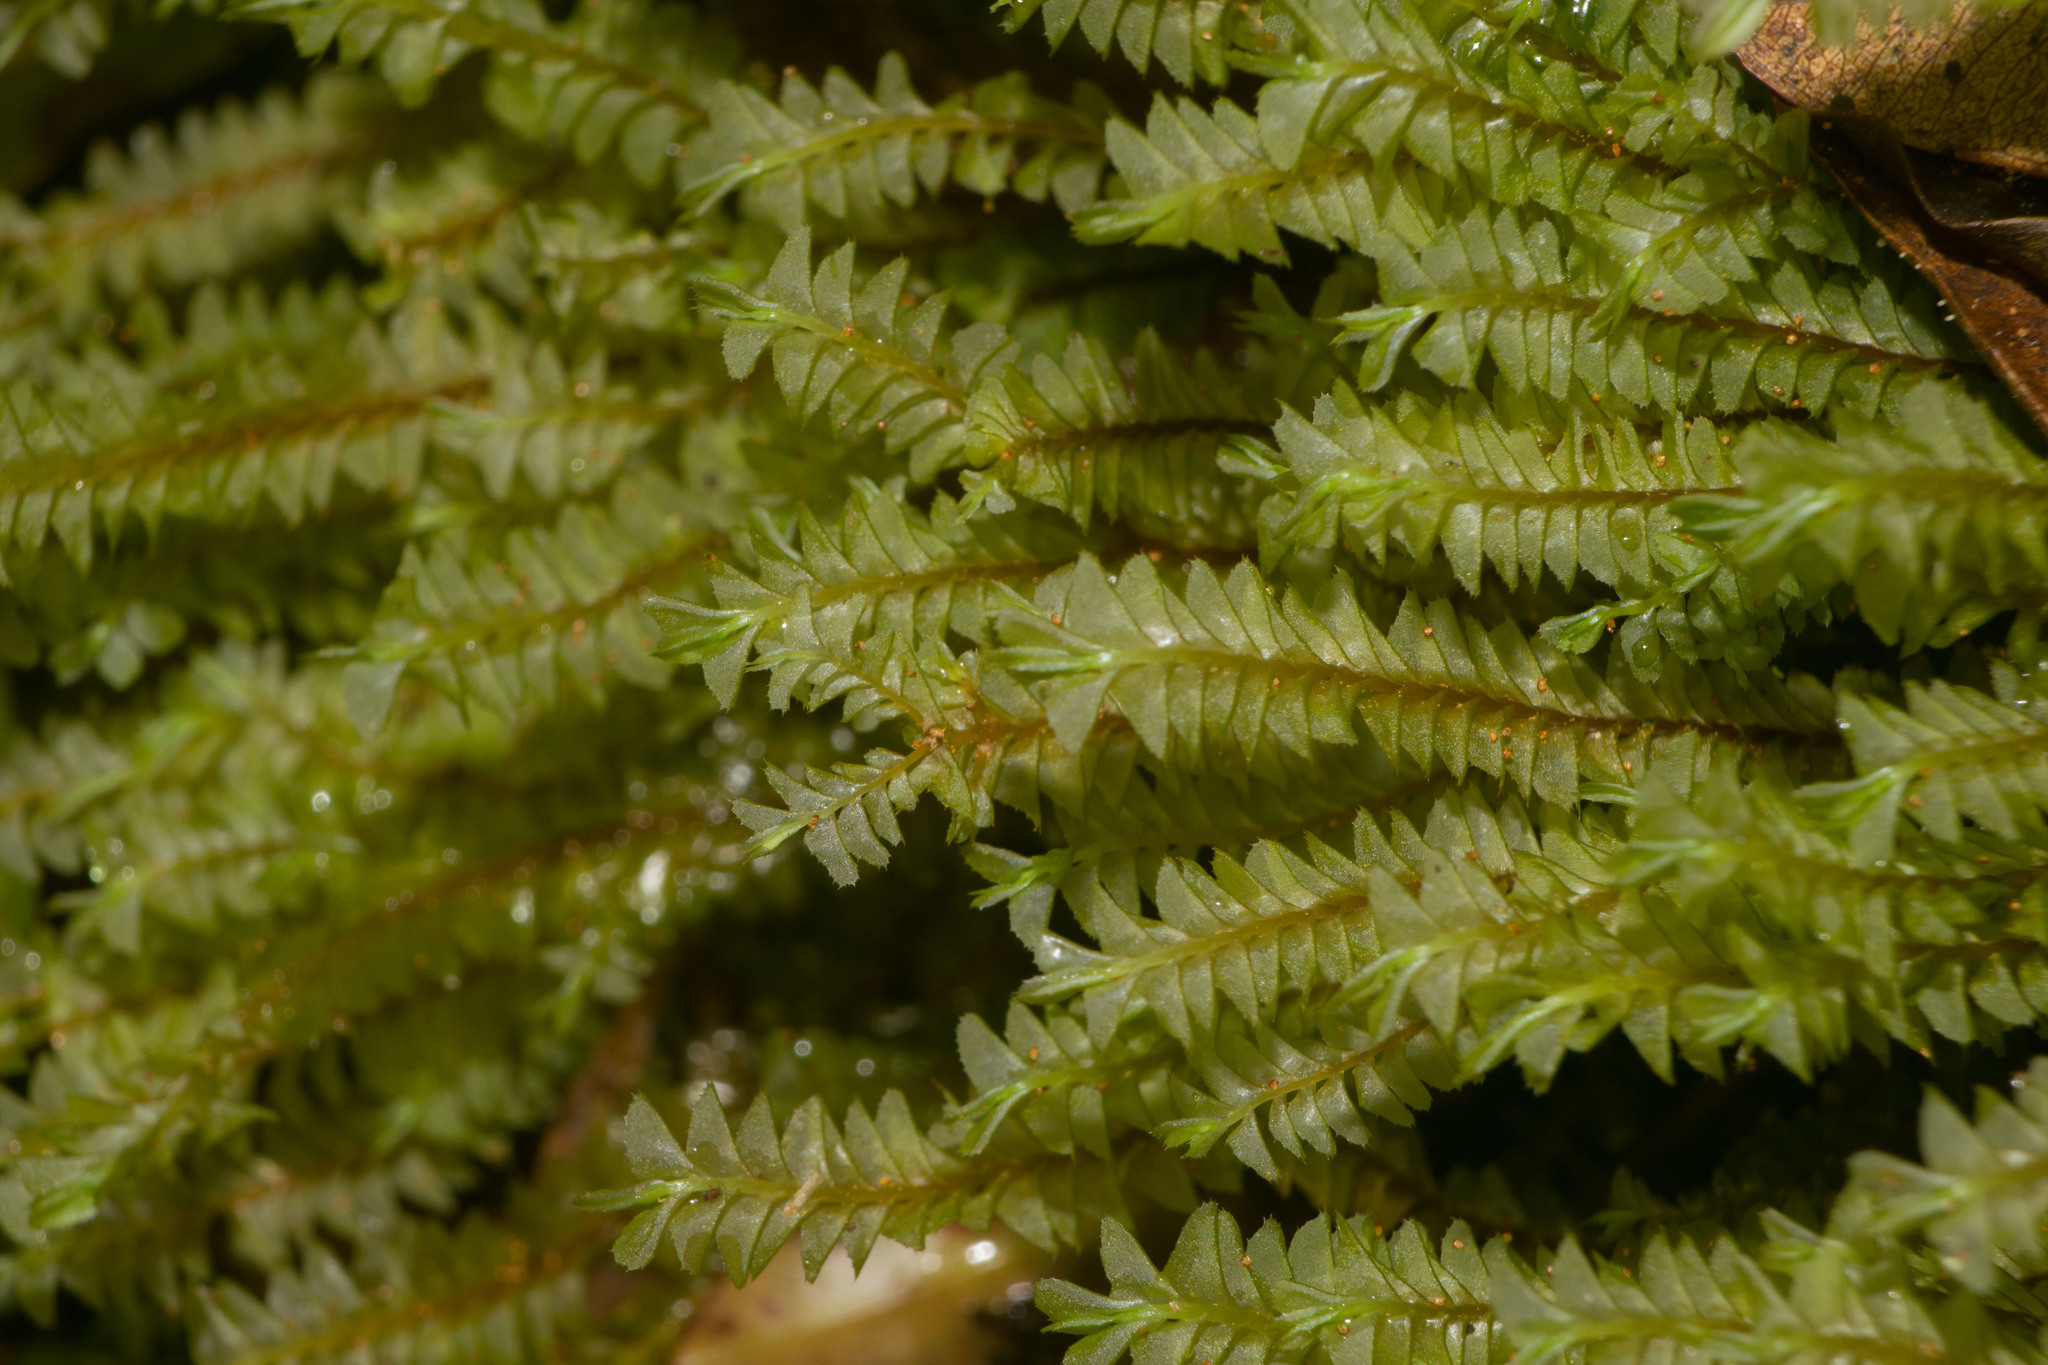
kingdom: Plantae
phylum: Marchantiophyta
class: Jungermanniopsida
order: Jungermanniales
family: Plagiochilaceae
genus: Plagiochila
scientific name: Plagiochila deflexa
